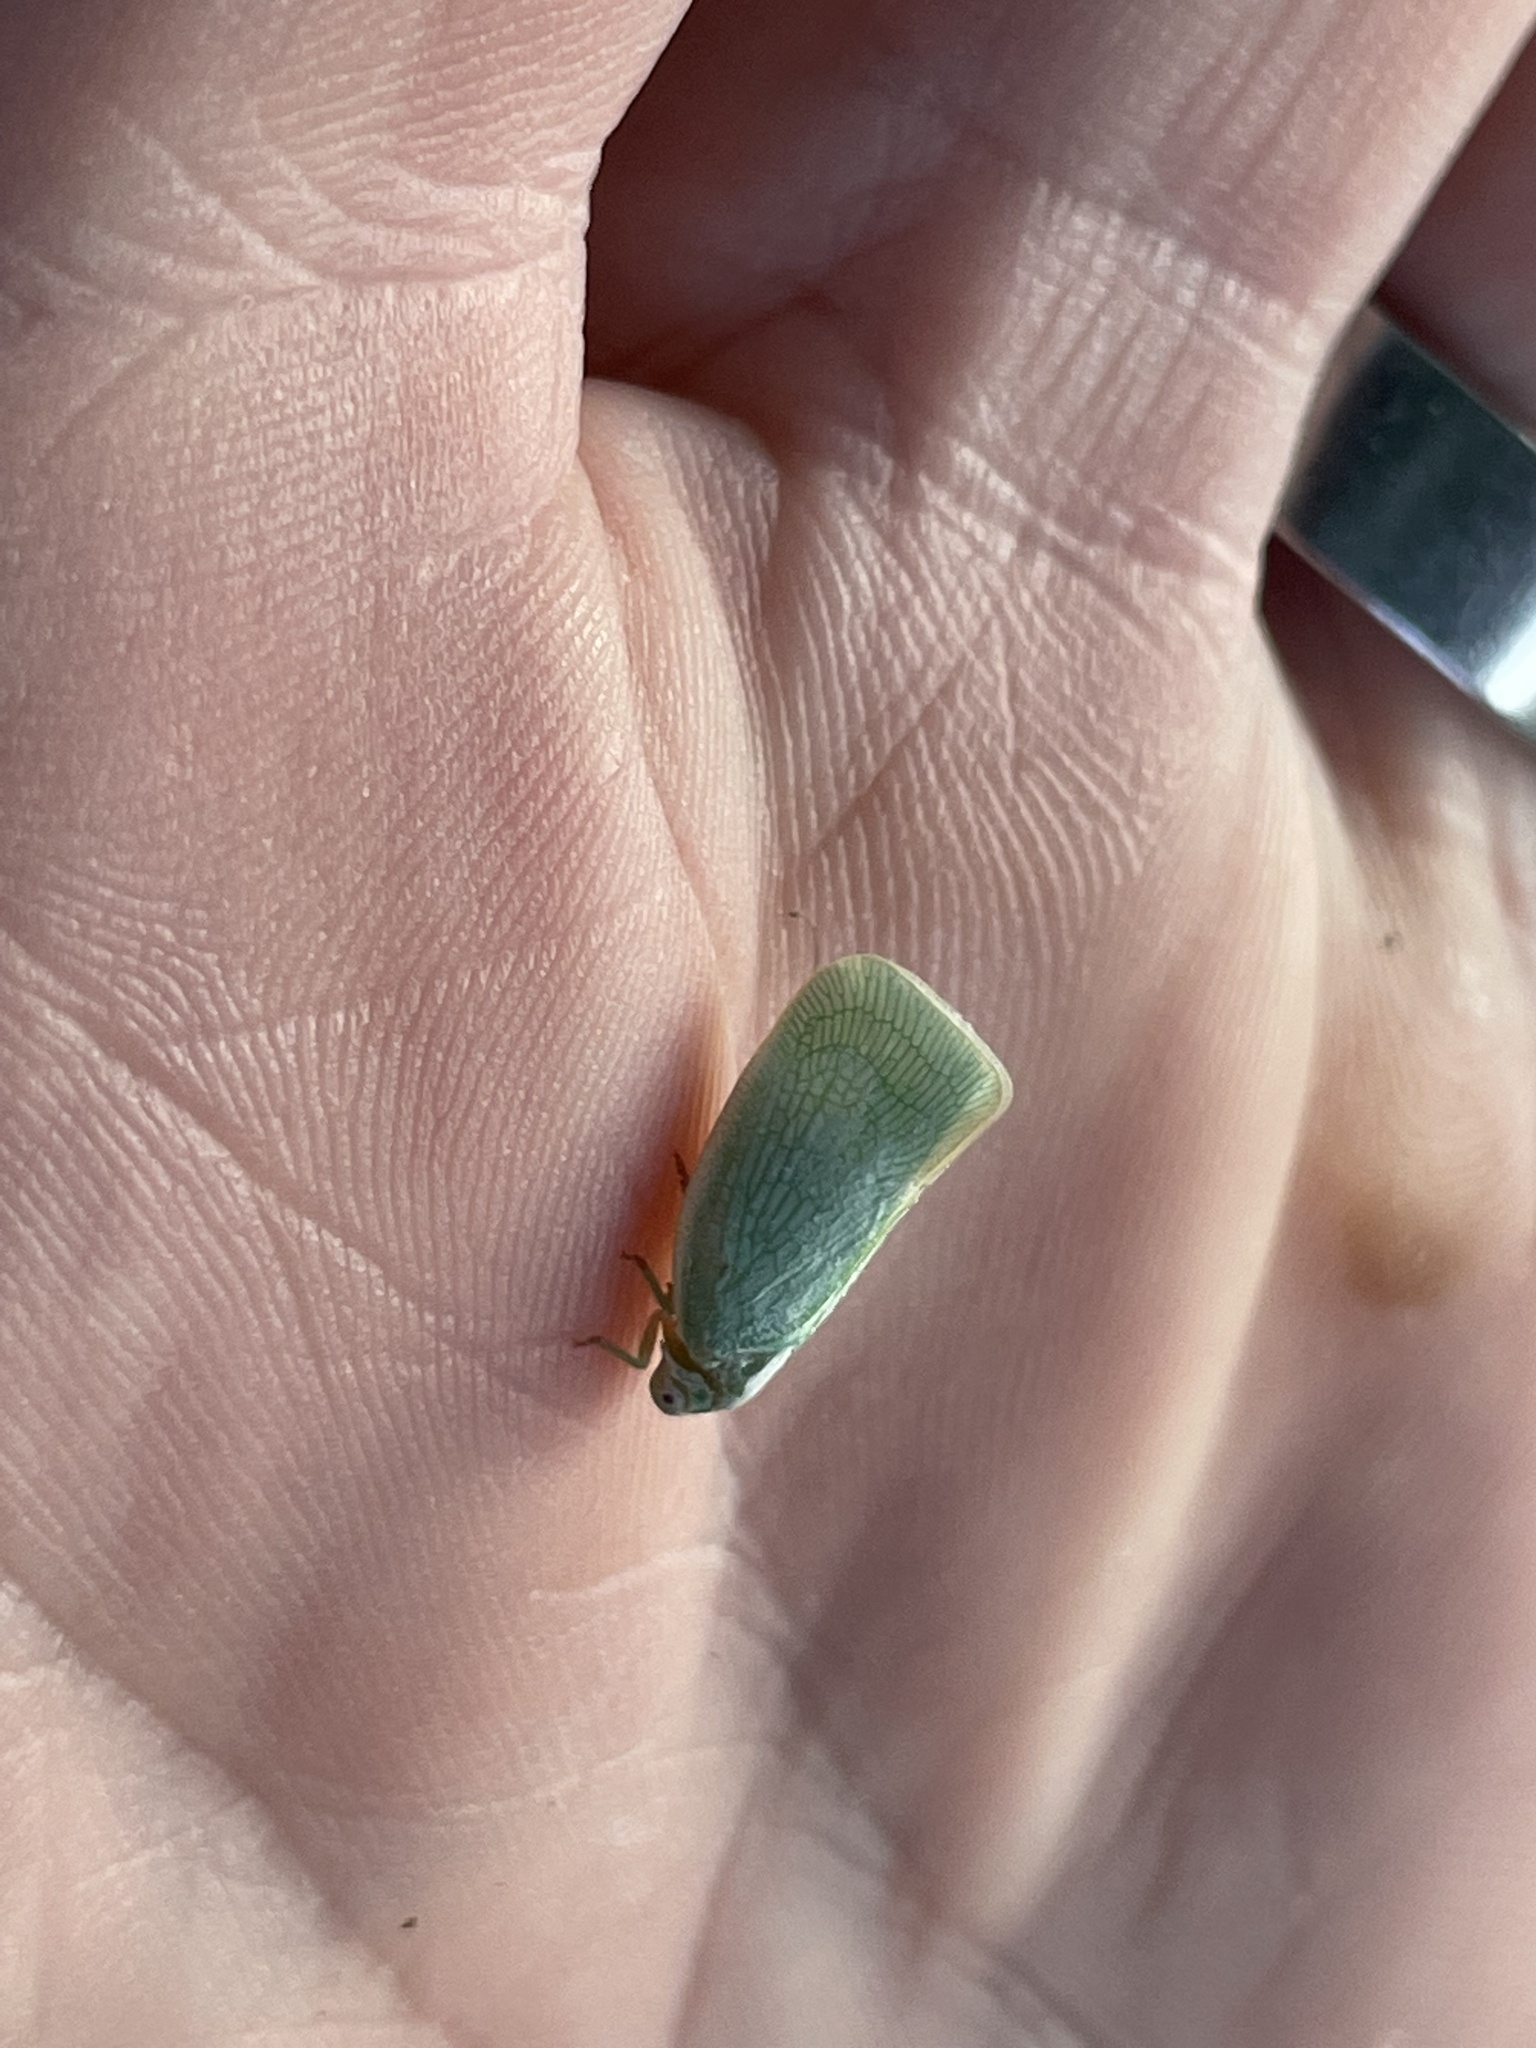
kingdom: Animalia
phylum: Arthropoda
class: Insecta
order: Hemiptera
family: Flatidae
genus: Flatormenis
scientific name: Flatormenis proxima
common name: Northern flatid planthopper
